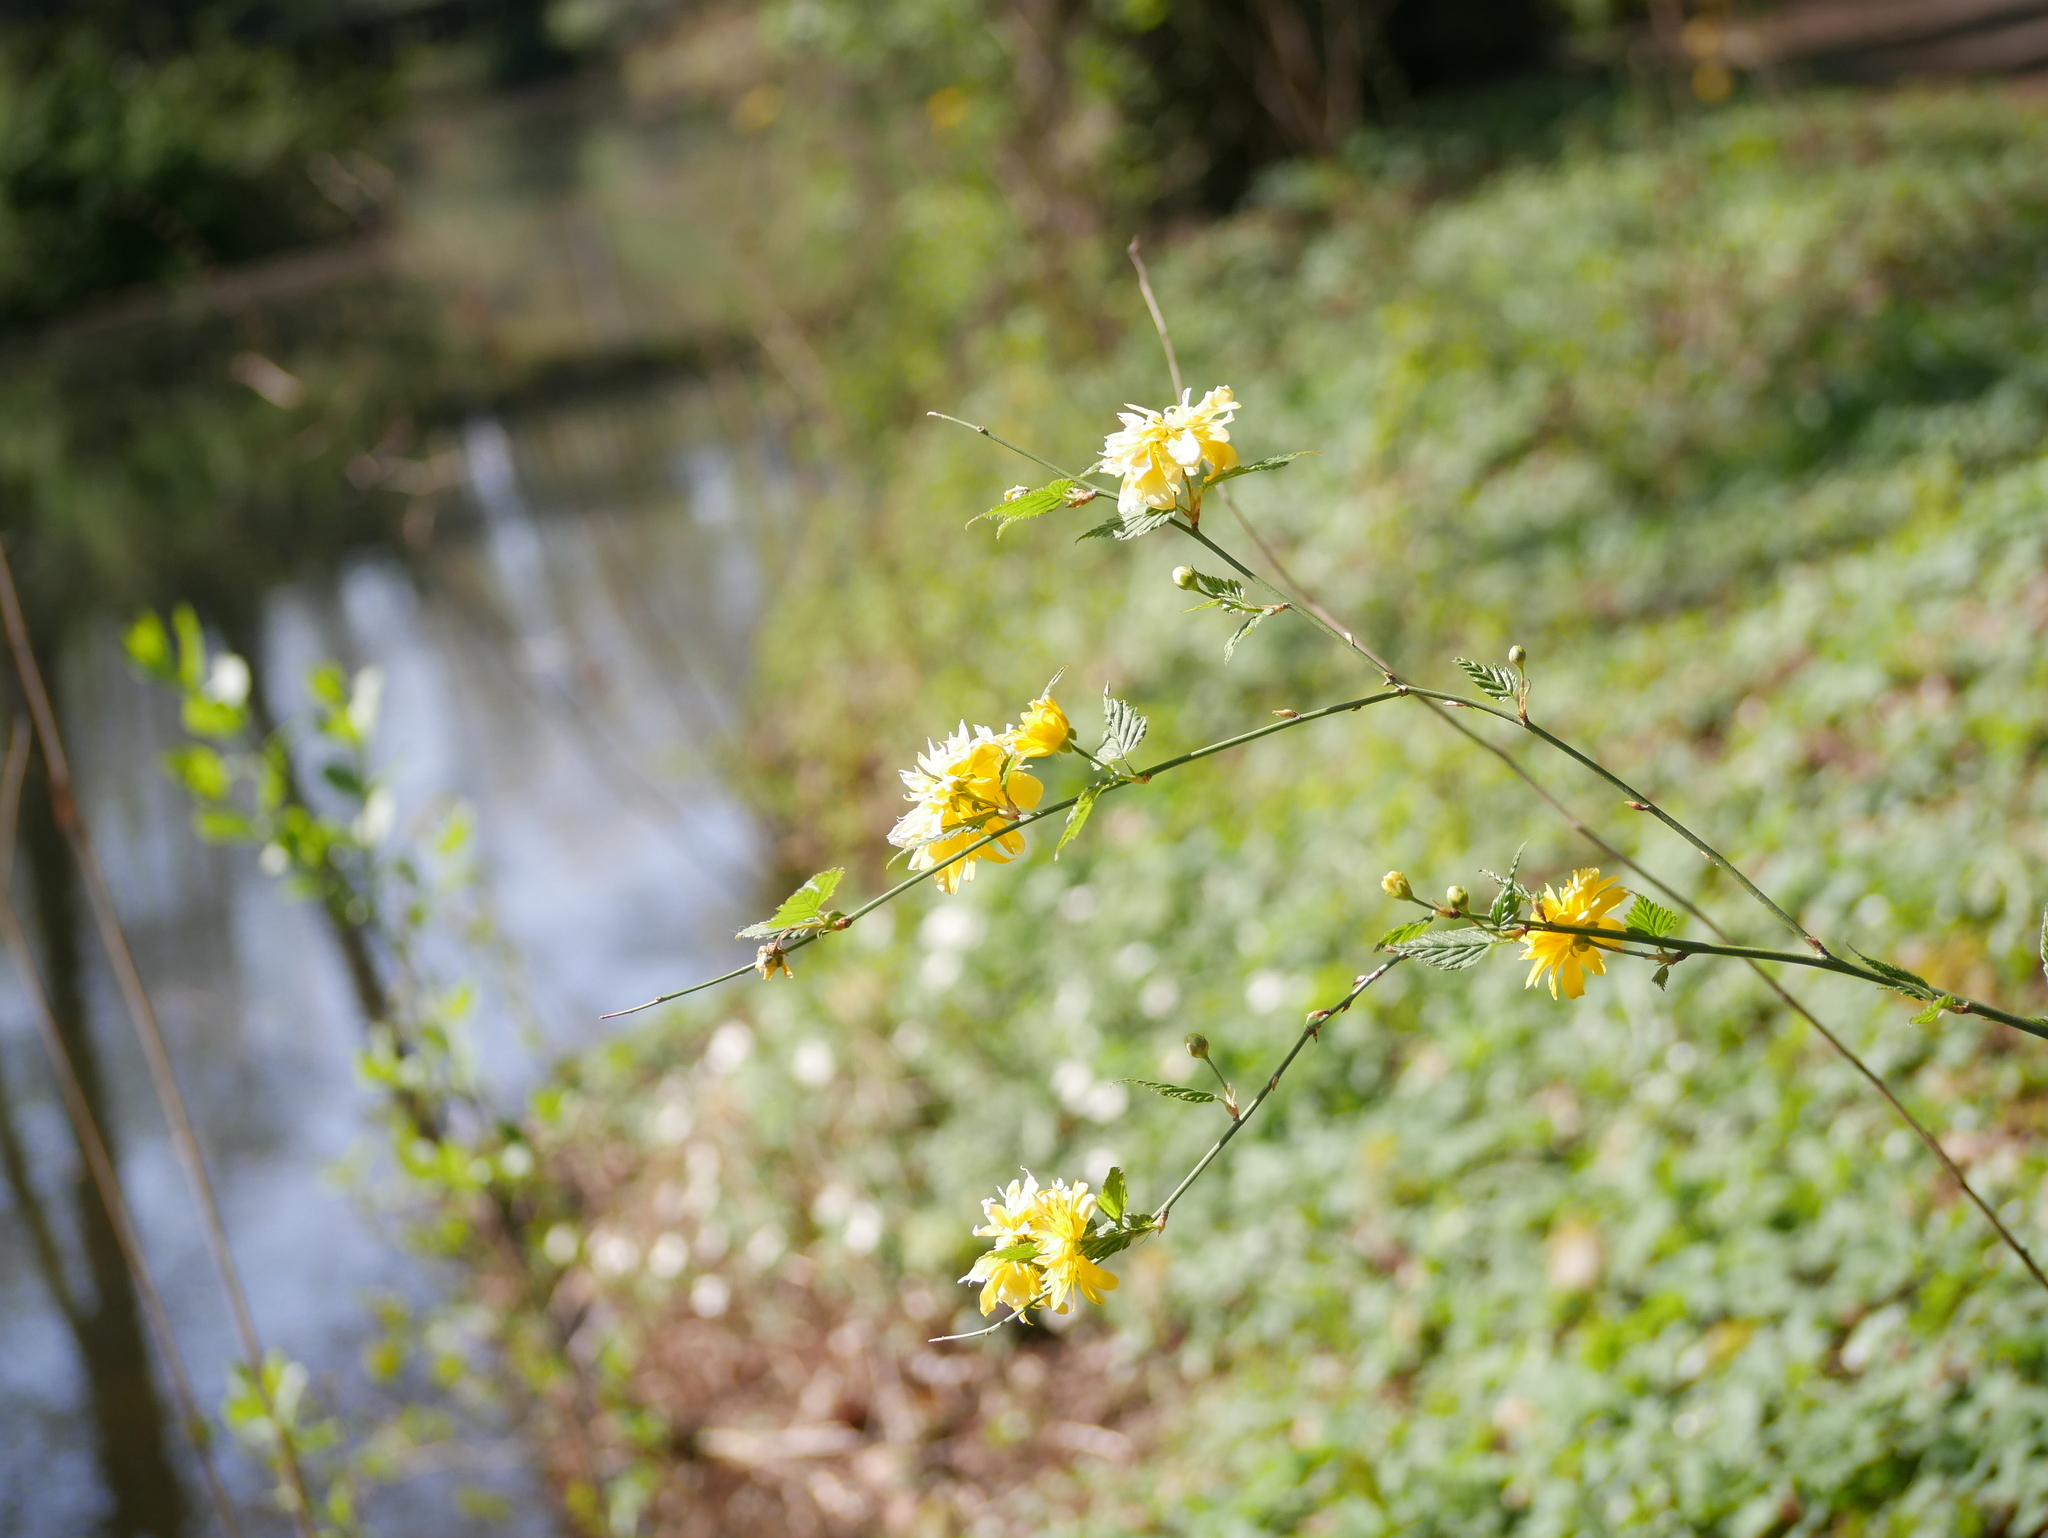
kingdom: Plantae
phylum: Tracheophyta
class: Magnoliopsida
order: Rosales
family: Rosaceae
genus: Kerria
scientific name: Kerria japonica
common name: Japanese kerria
